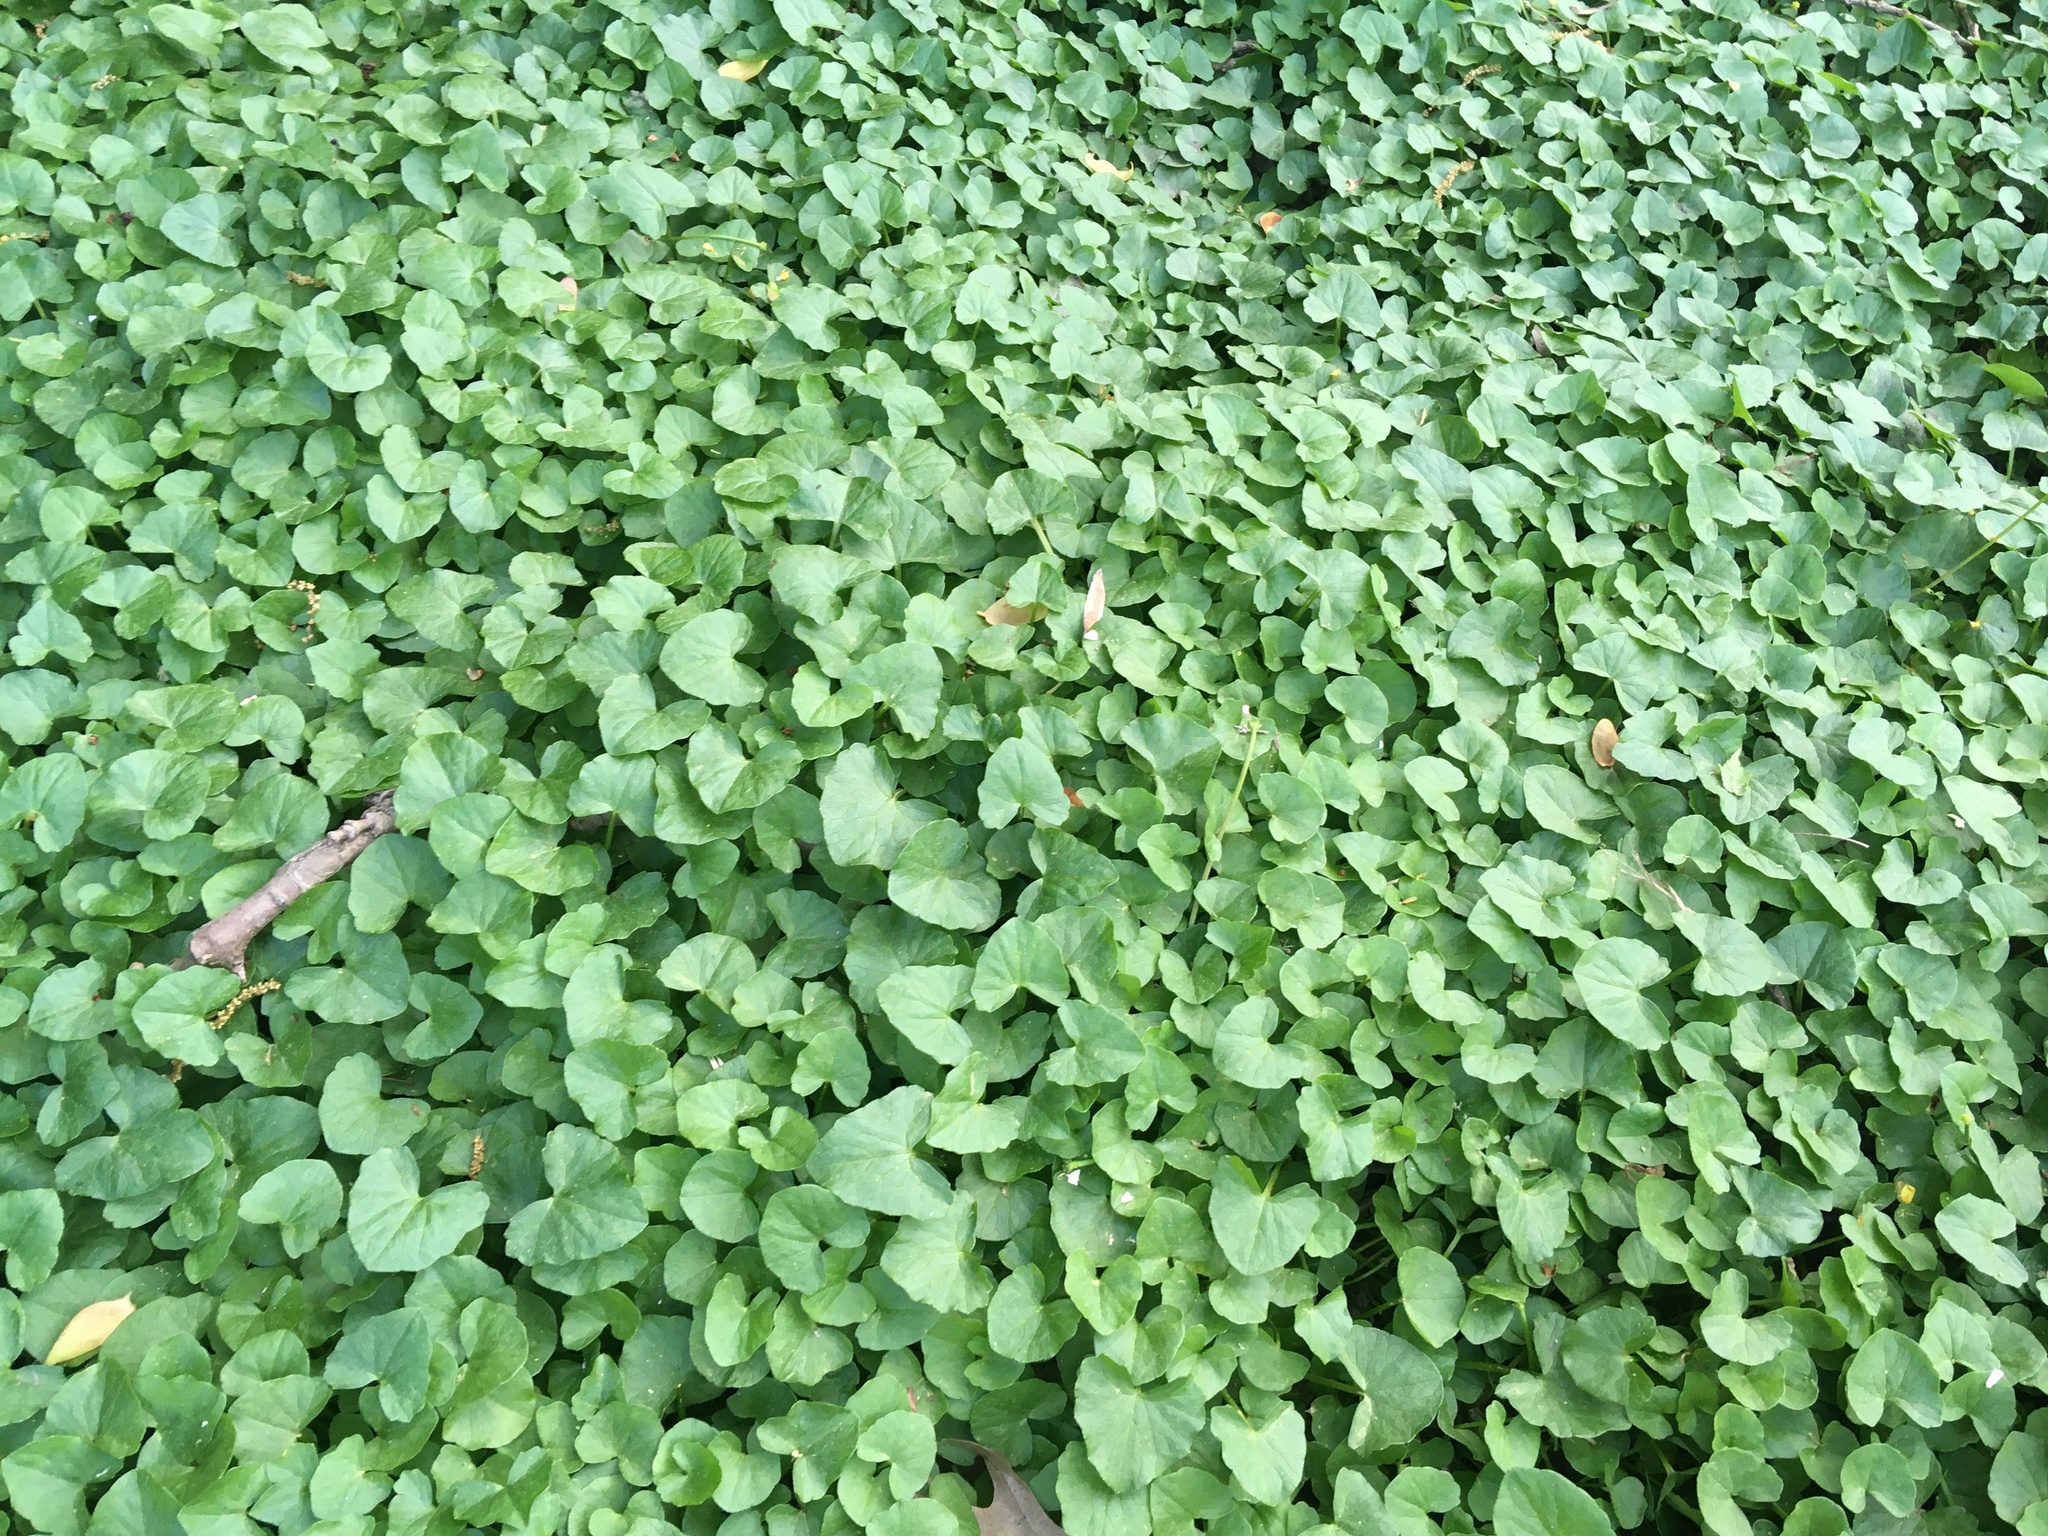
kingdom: Plantae
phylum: Tracheophyta
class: Magnoliopsida
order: Ranunculales
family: Ranunculaceae
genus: Ficaria
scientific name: Ficaria verna
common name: Lesser celandine
